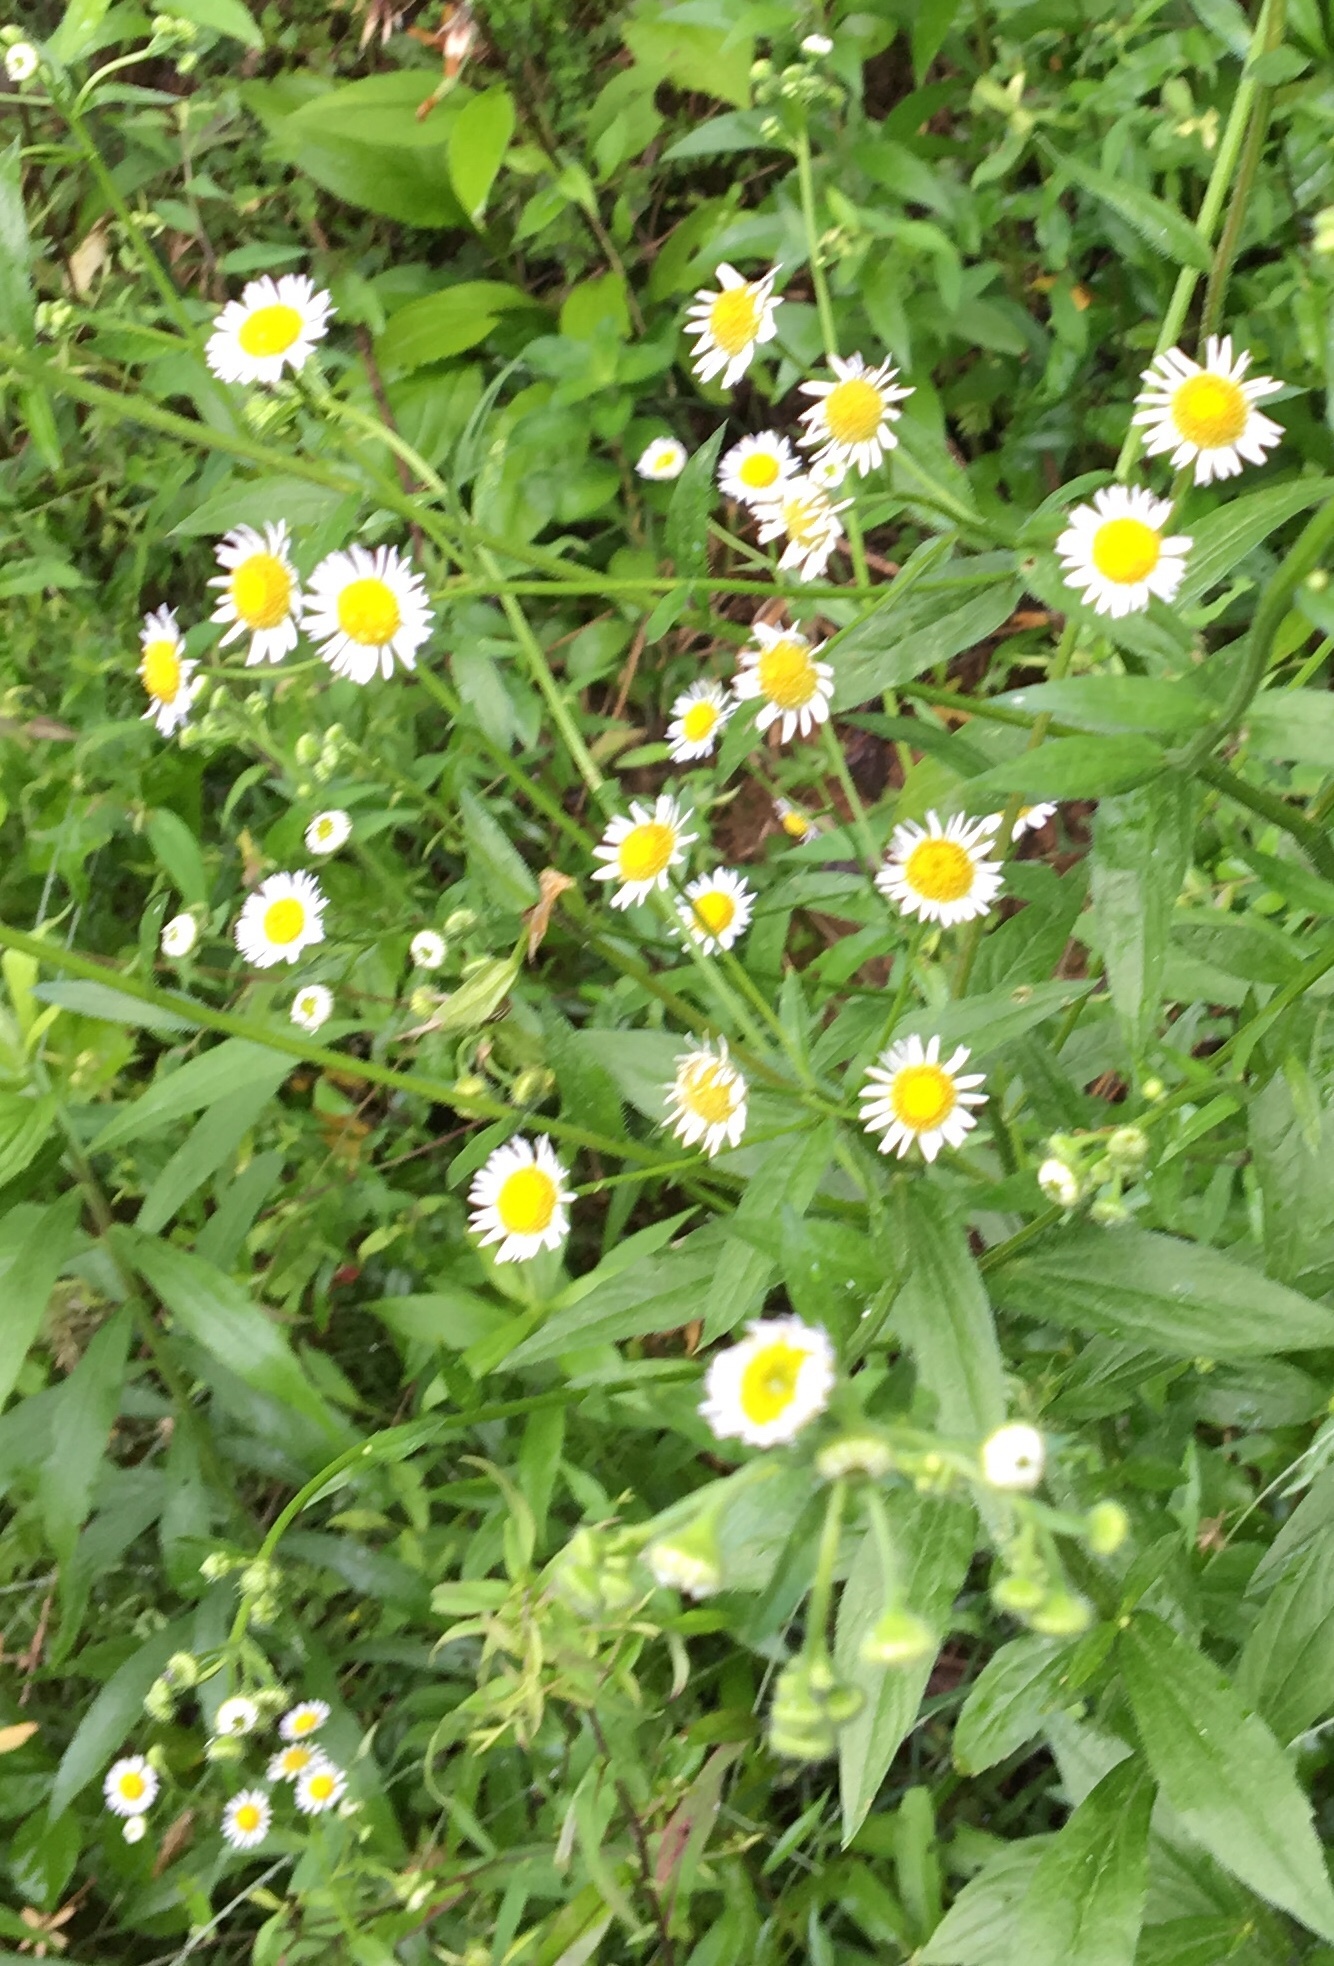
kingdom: Plantae
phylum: Tracheophyta
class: Magnoliopsida
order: Asterales
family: Asteraceae
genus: Erigeron
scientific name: Erigeron annuus
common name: Tall fleabane
